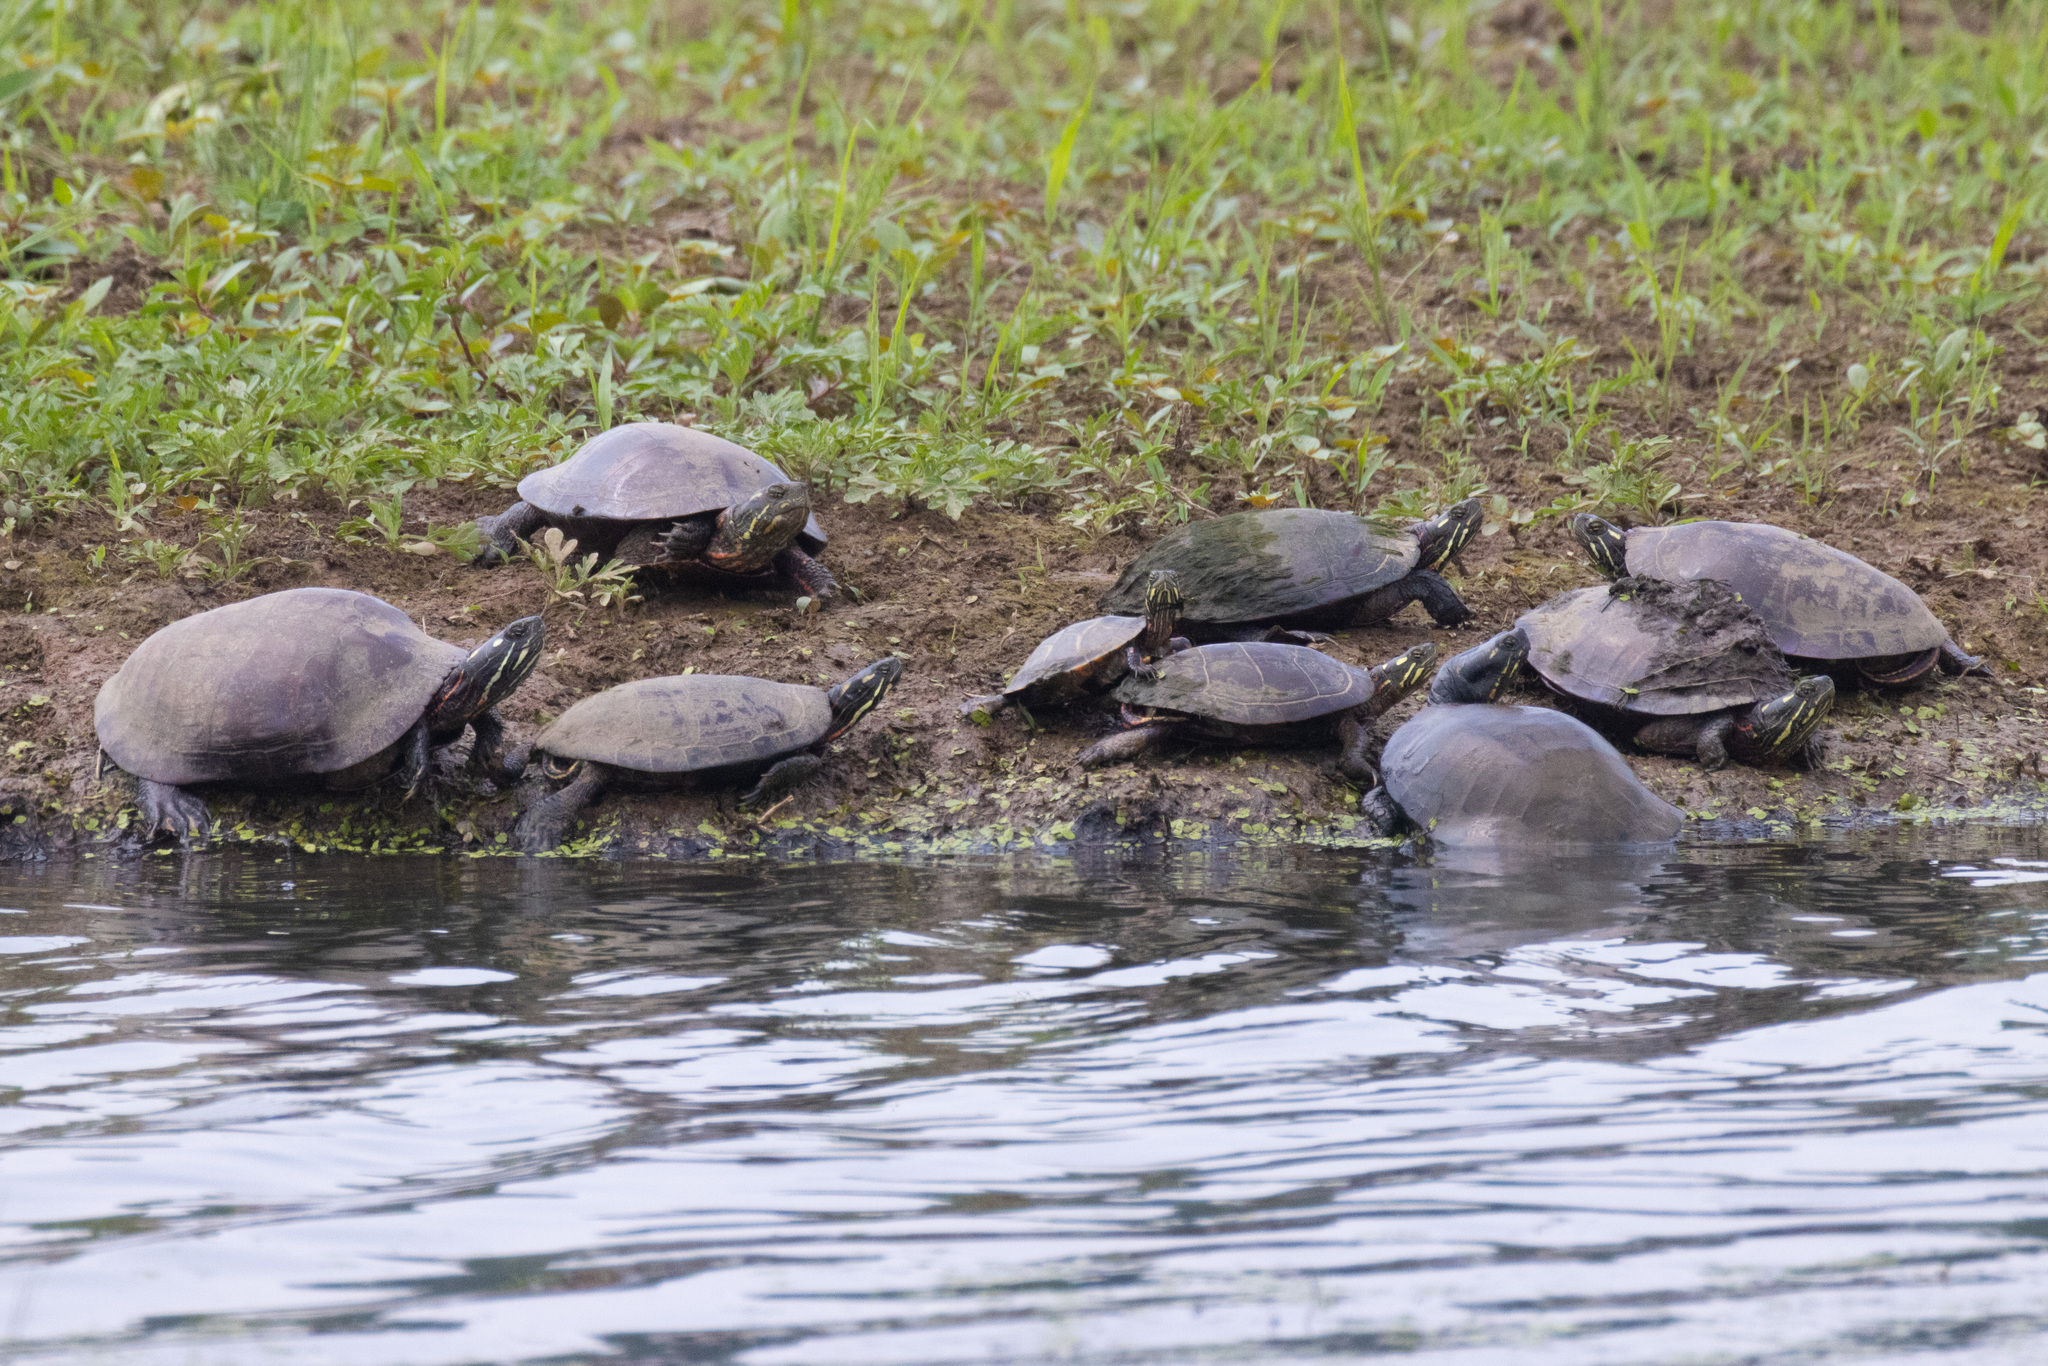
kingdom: Animalia
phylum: Chordata
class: Testudines
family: Emydidae
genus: Chrysemys
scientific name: Chrysemys picta
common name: Painted turtle
